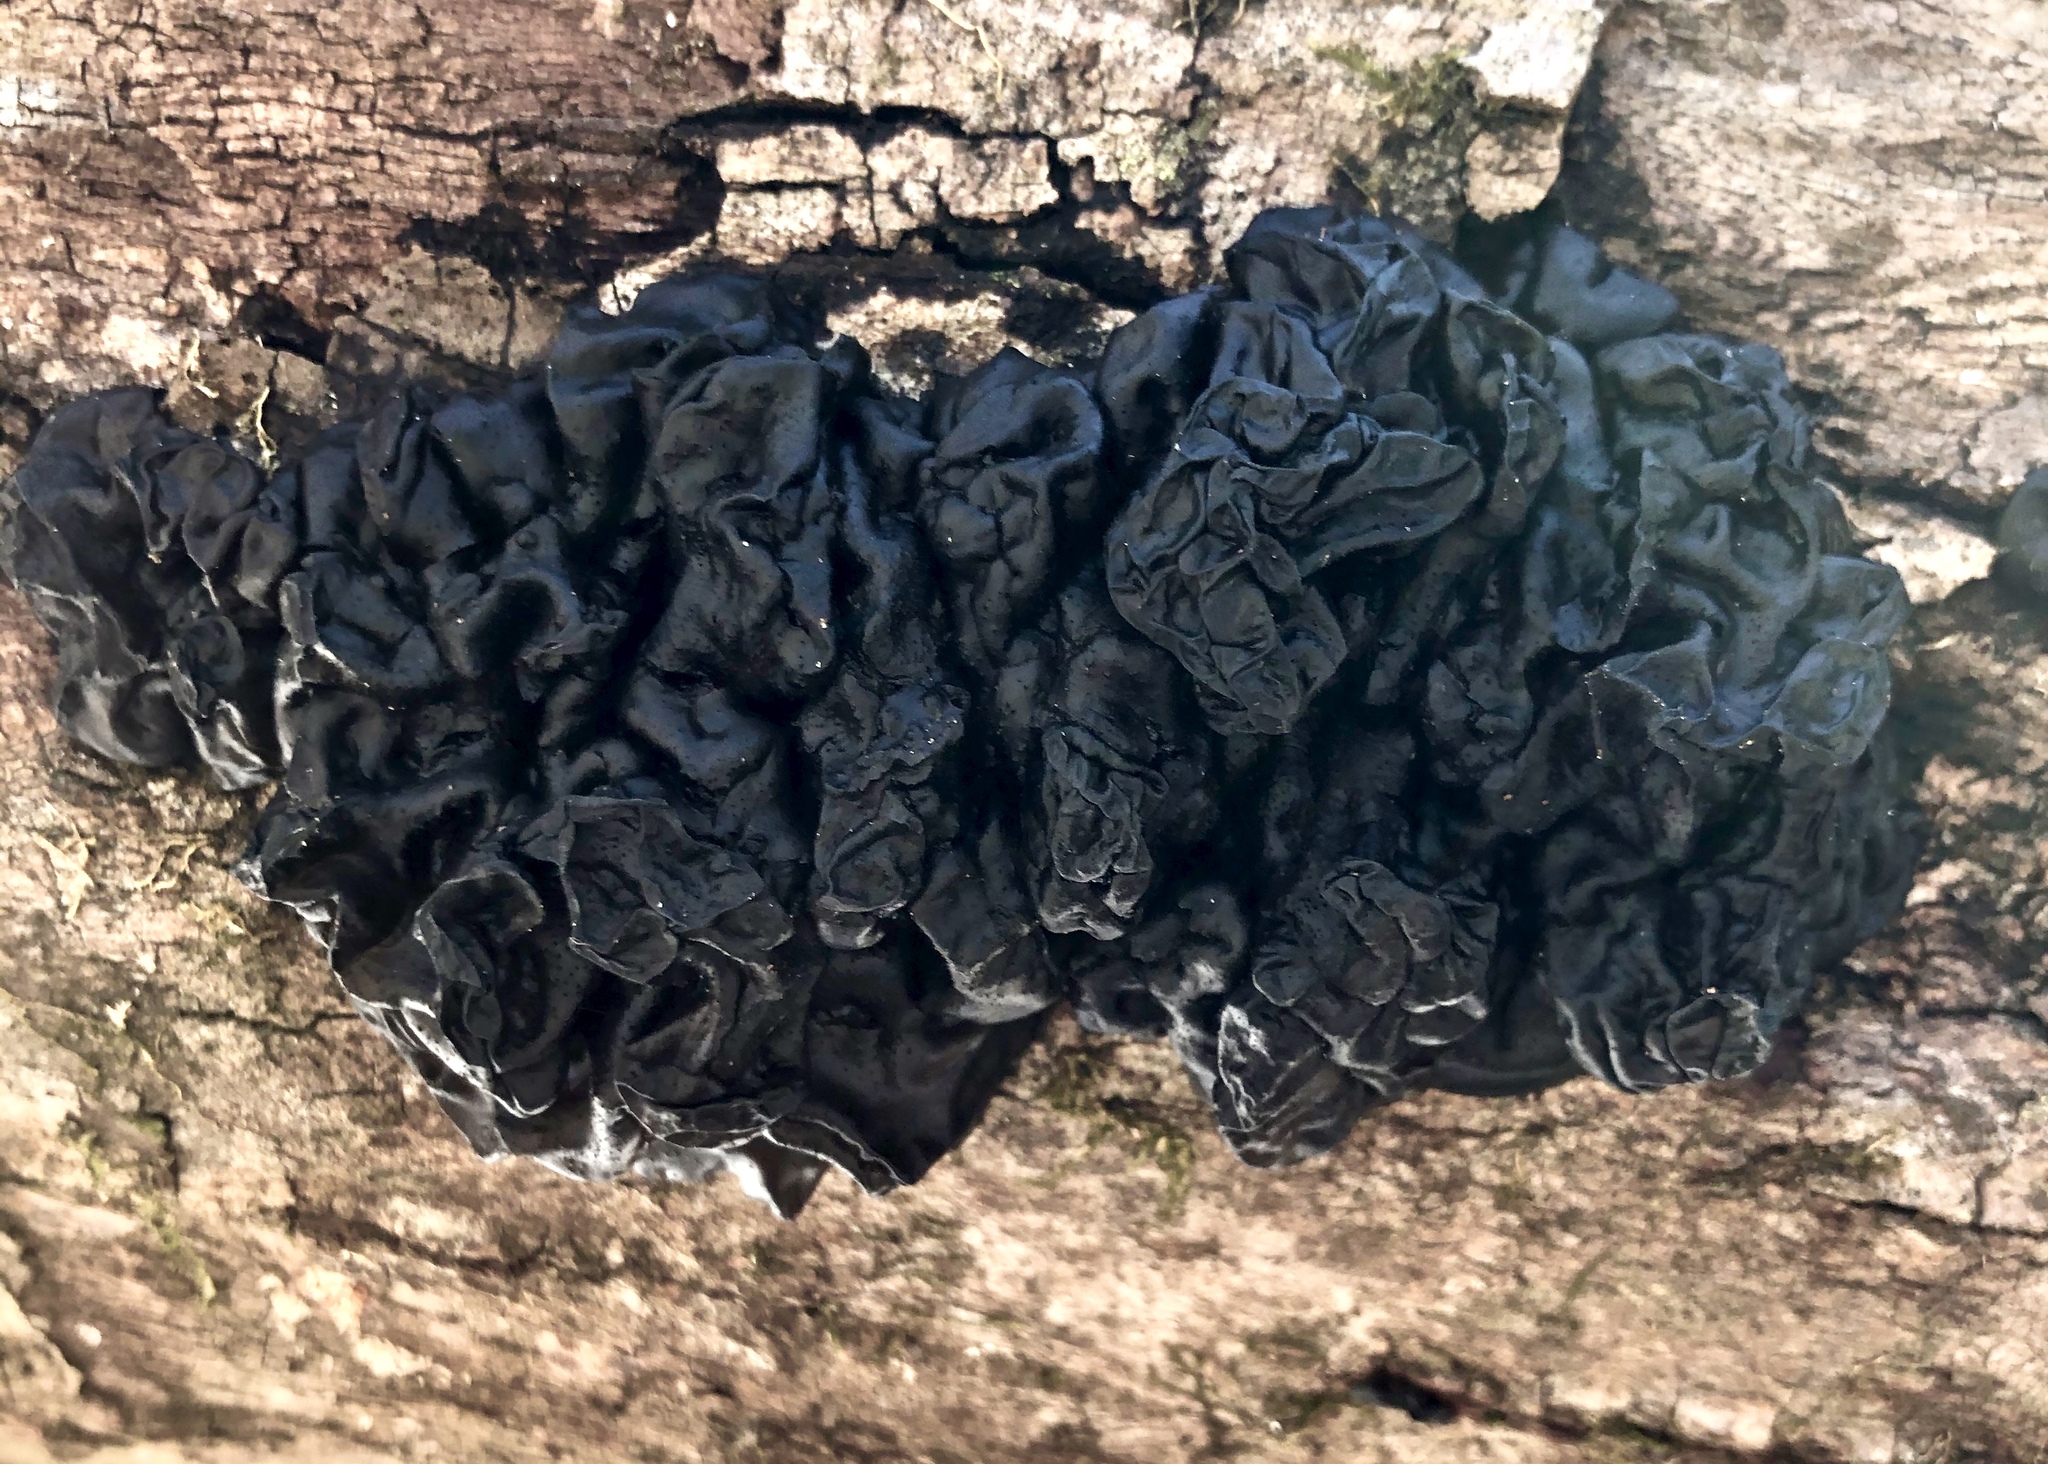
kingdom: Fungi
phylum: Basidiomycota
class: Agaricomycetes
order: Auriculariales
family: Auriculariaceae
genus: Exidia
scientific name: Exidia glandulosa
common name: Witches' butter
